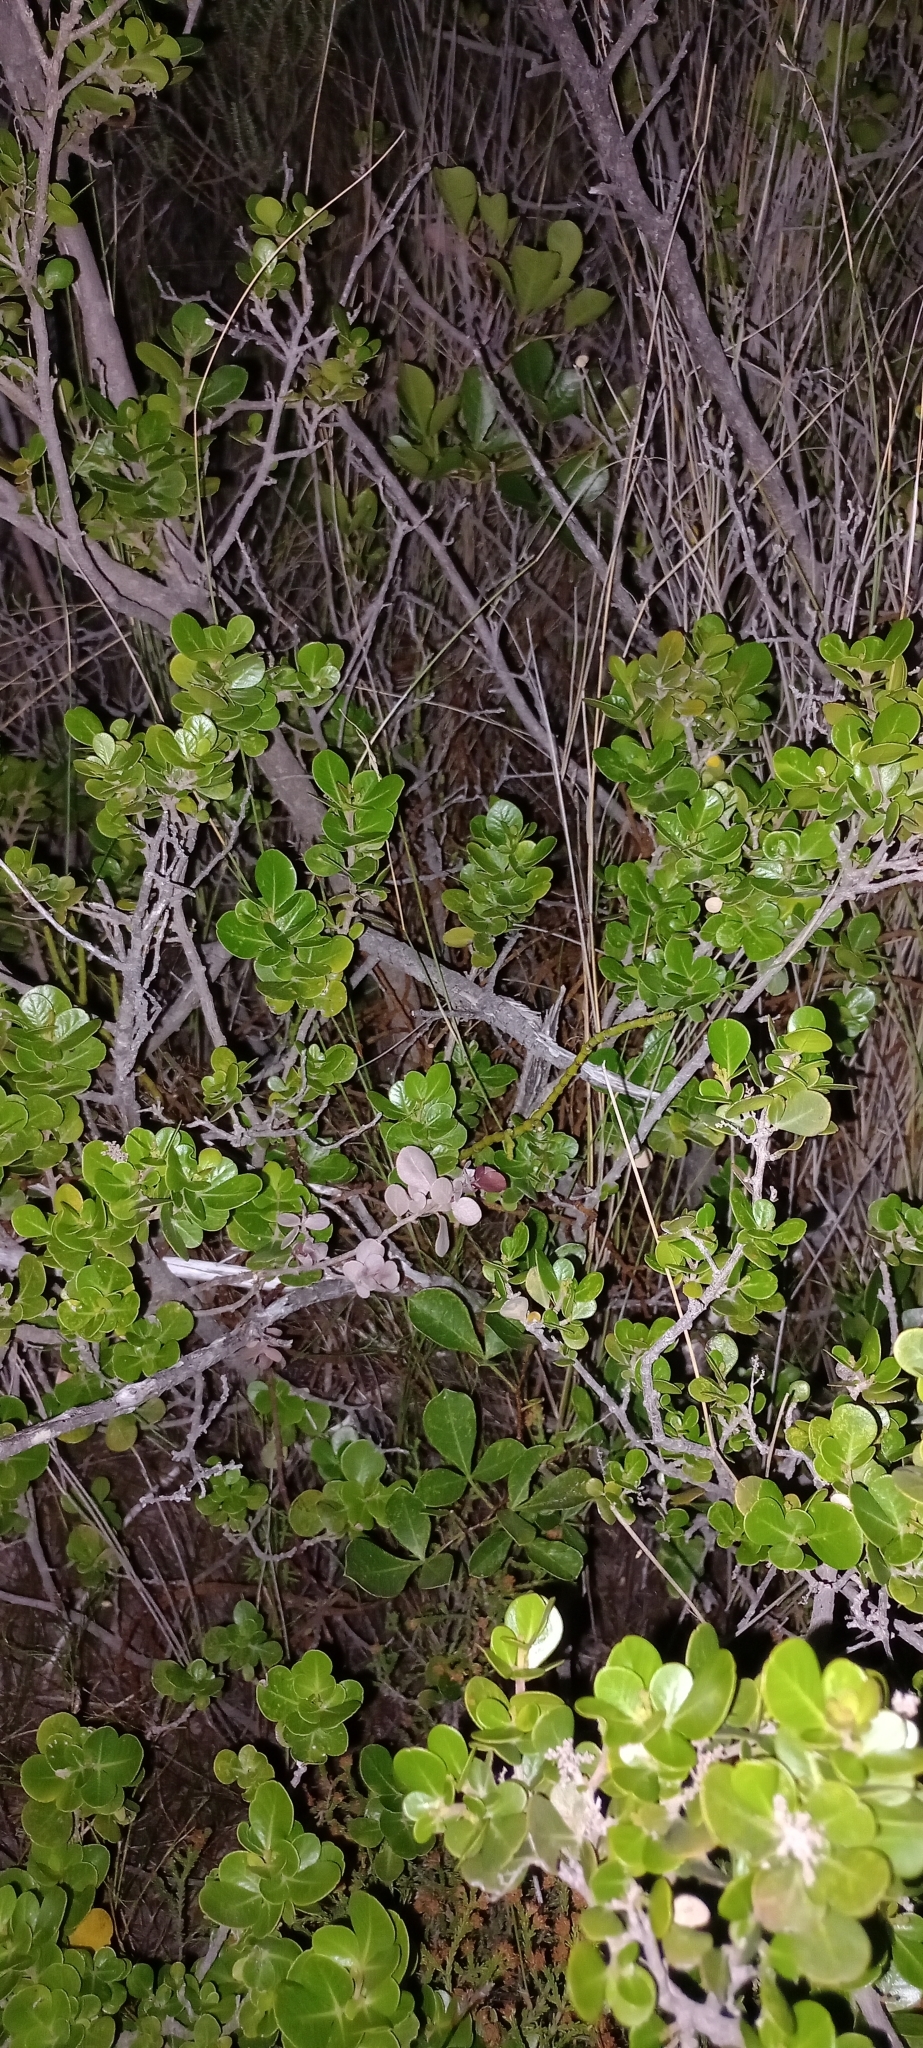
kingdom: Plantae
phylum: Tracheophyta
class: Magnoliopsida
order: Sapindales
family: Anacardiaceae
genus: Searsia
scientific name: Searsia lucida
